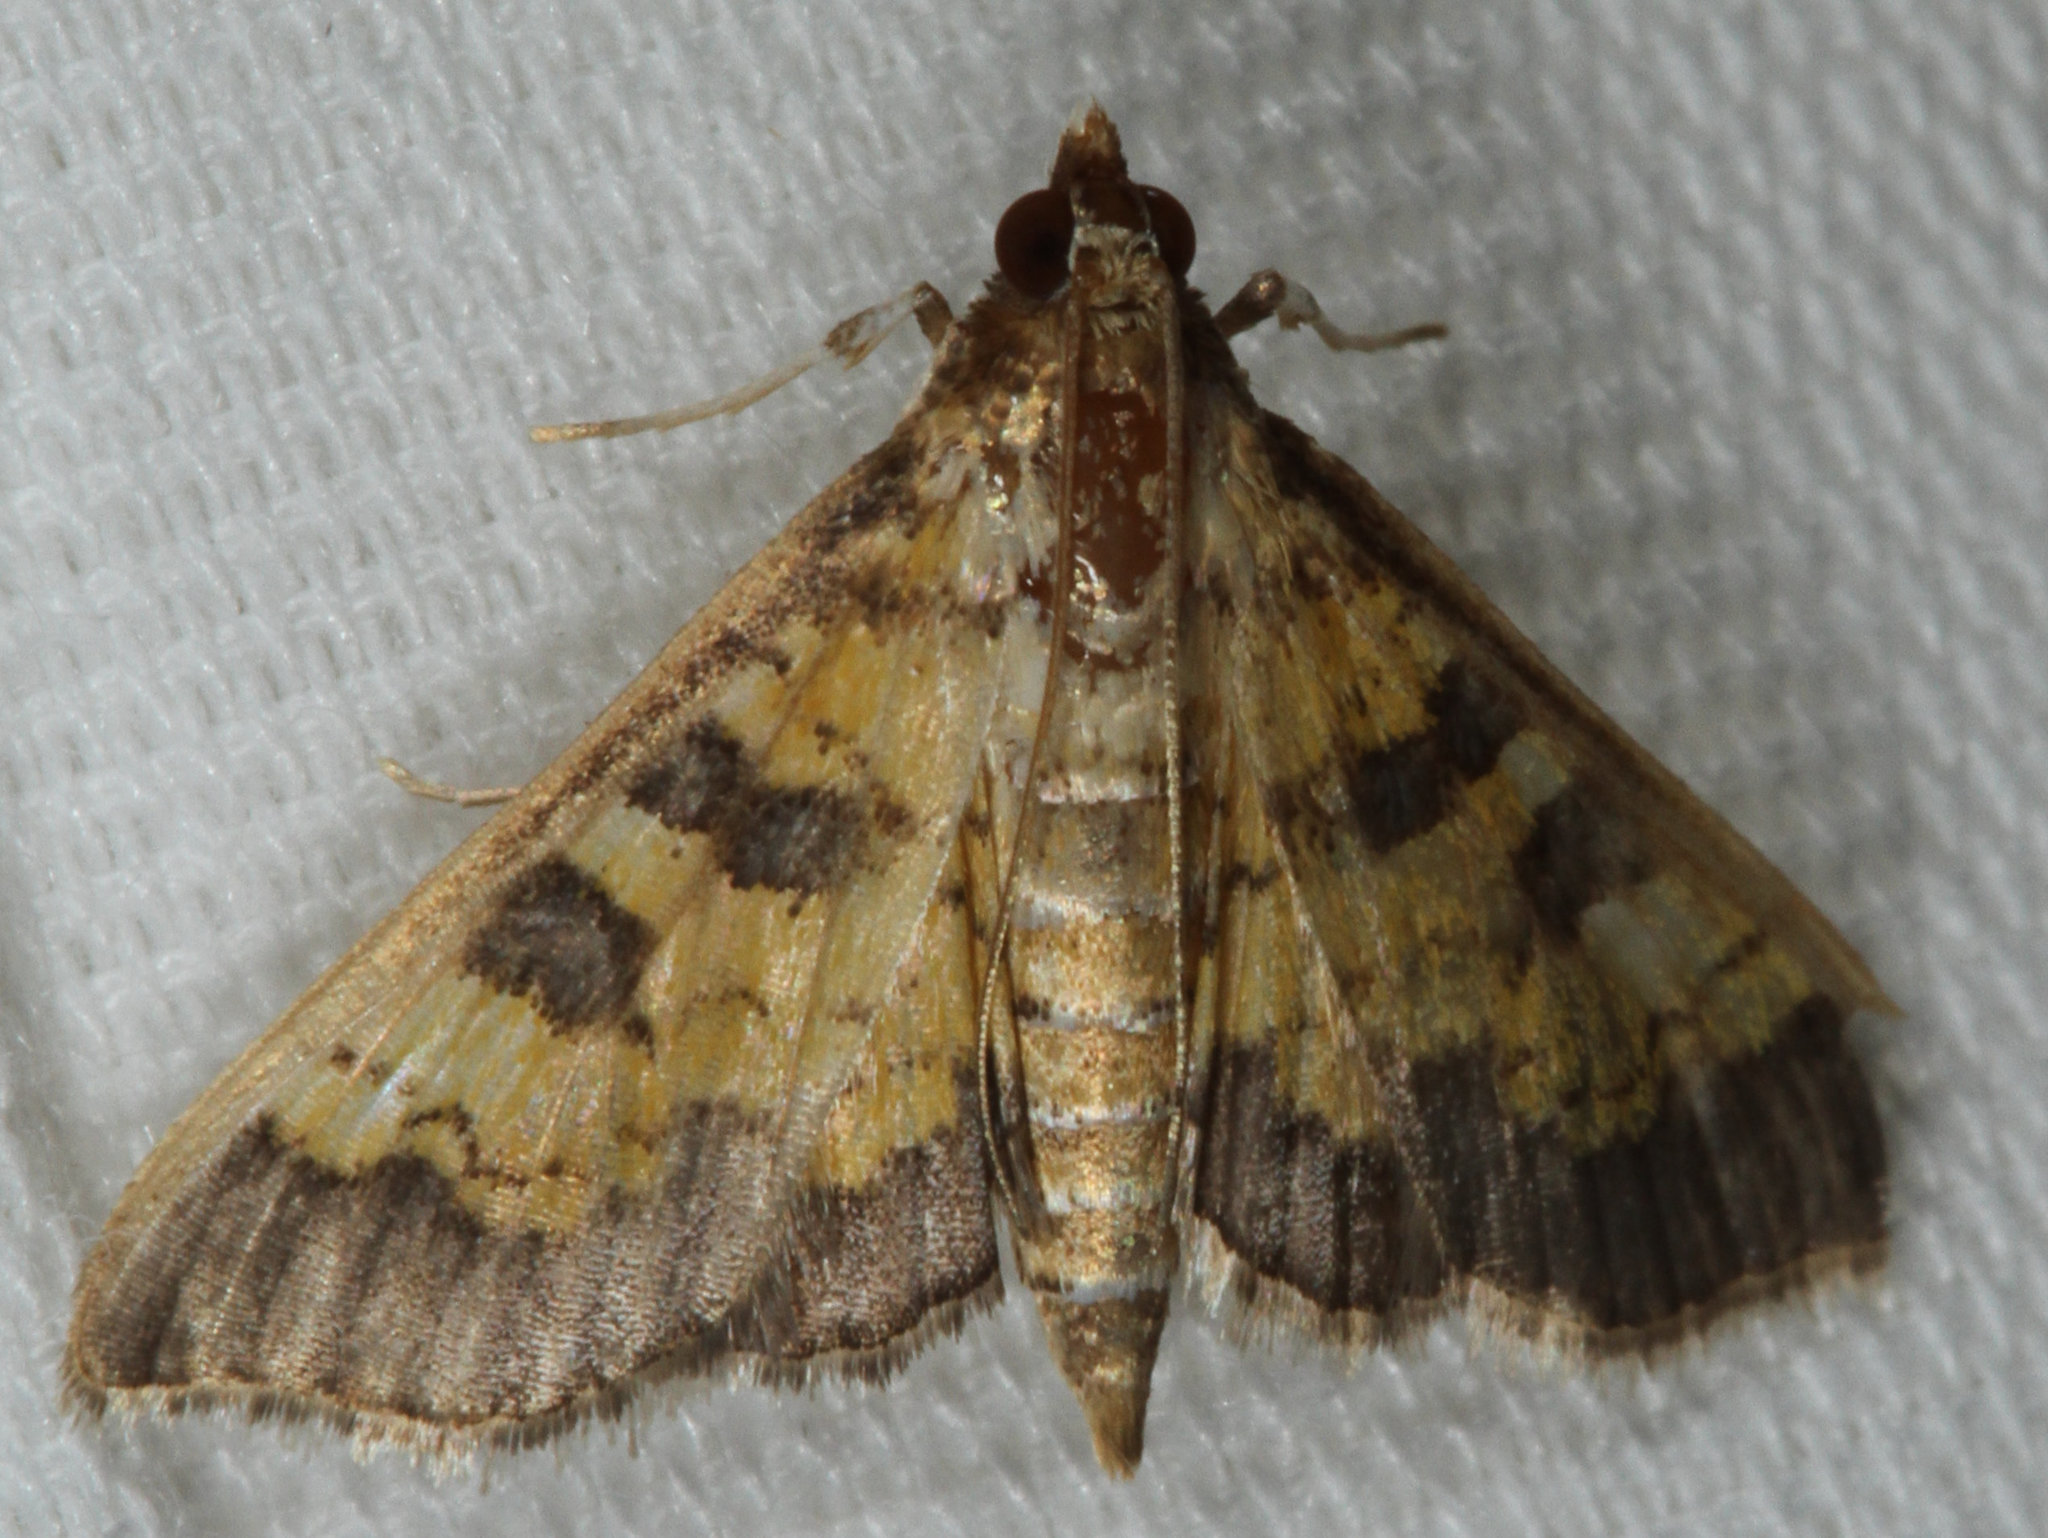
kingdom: Animalia
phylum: Arthropoda
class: Insecta
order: Lepidoptera
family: Crambidae
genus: Epipagis
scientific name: Epipagis adipaloides
